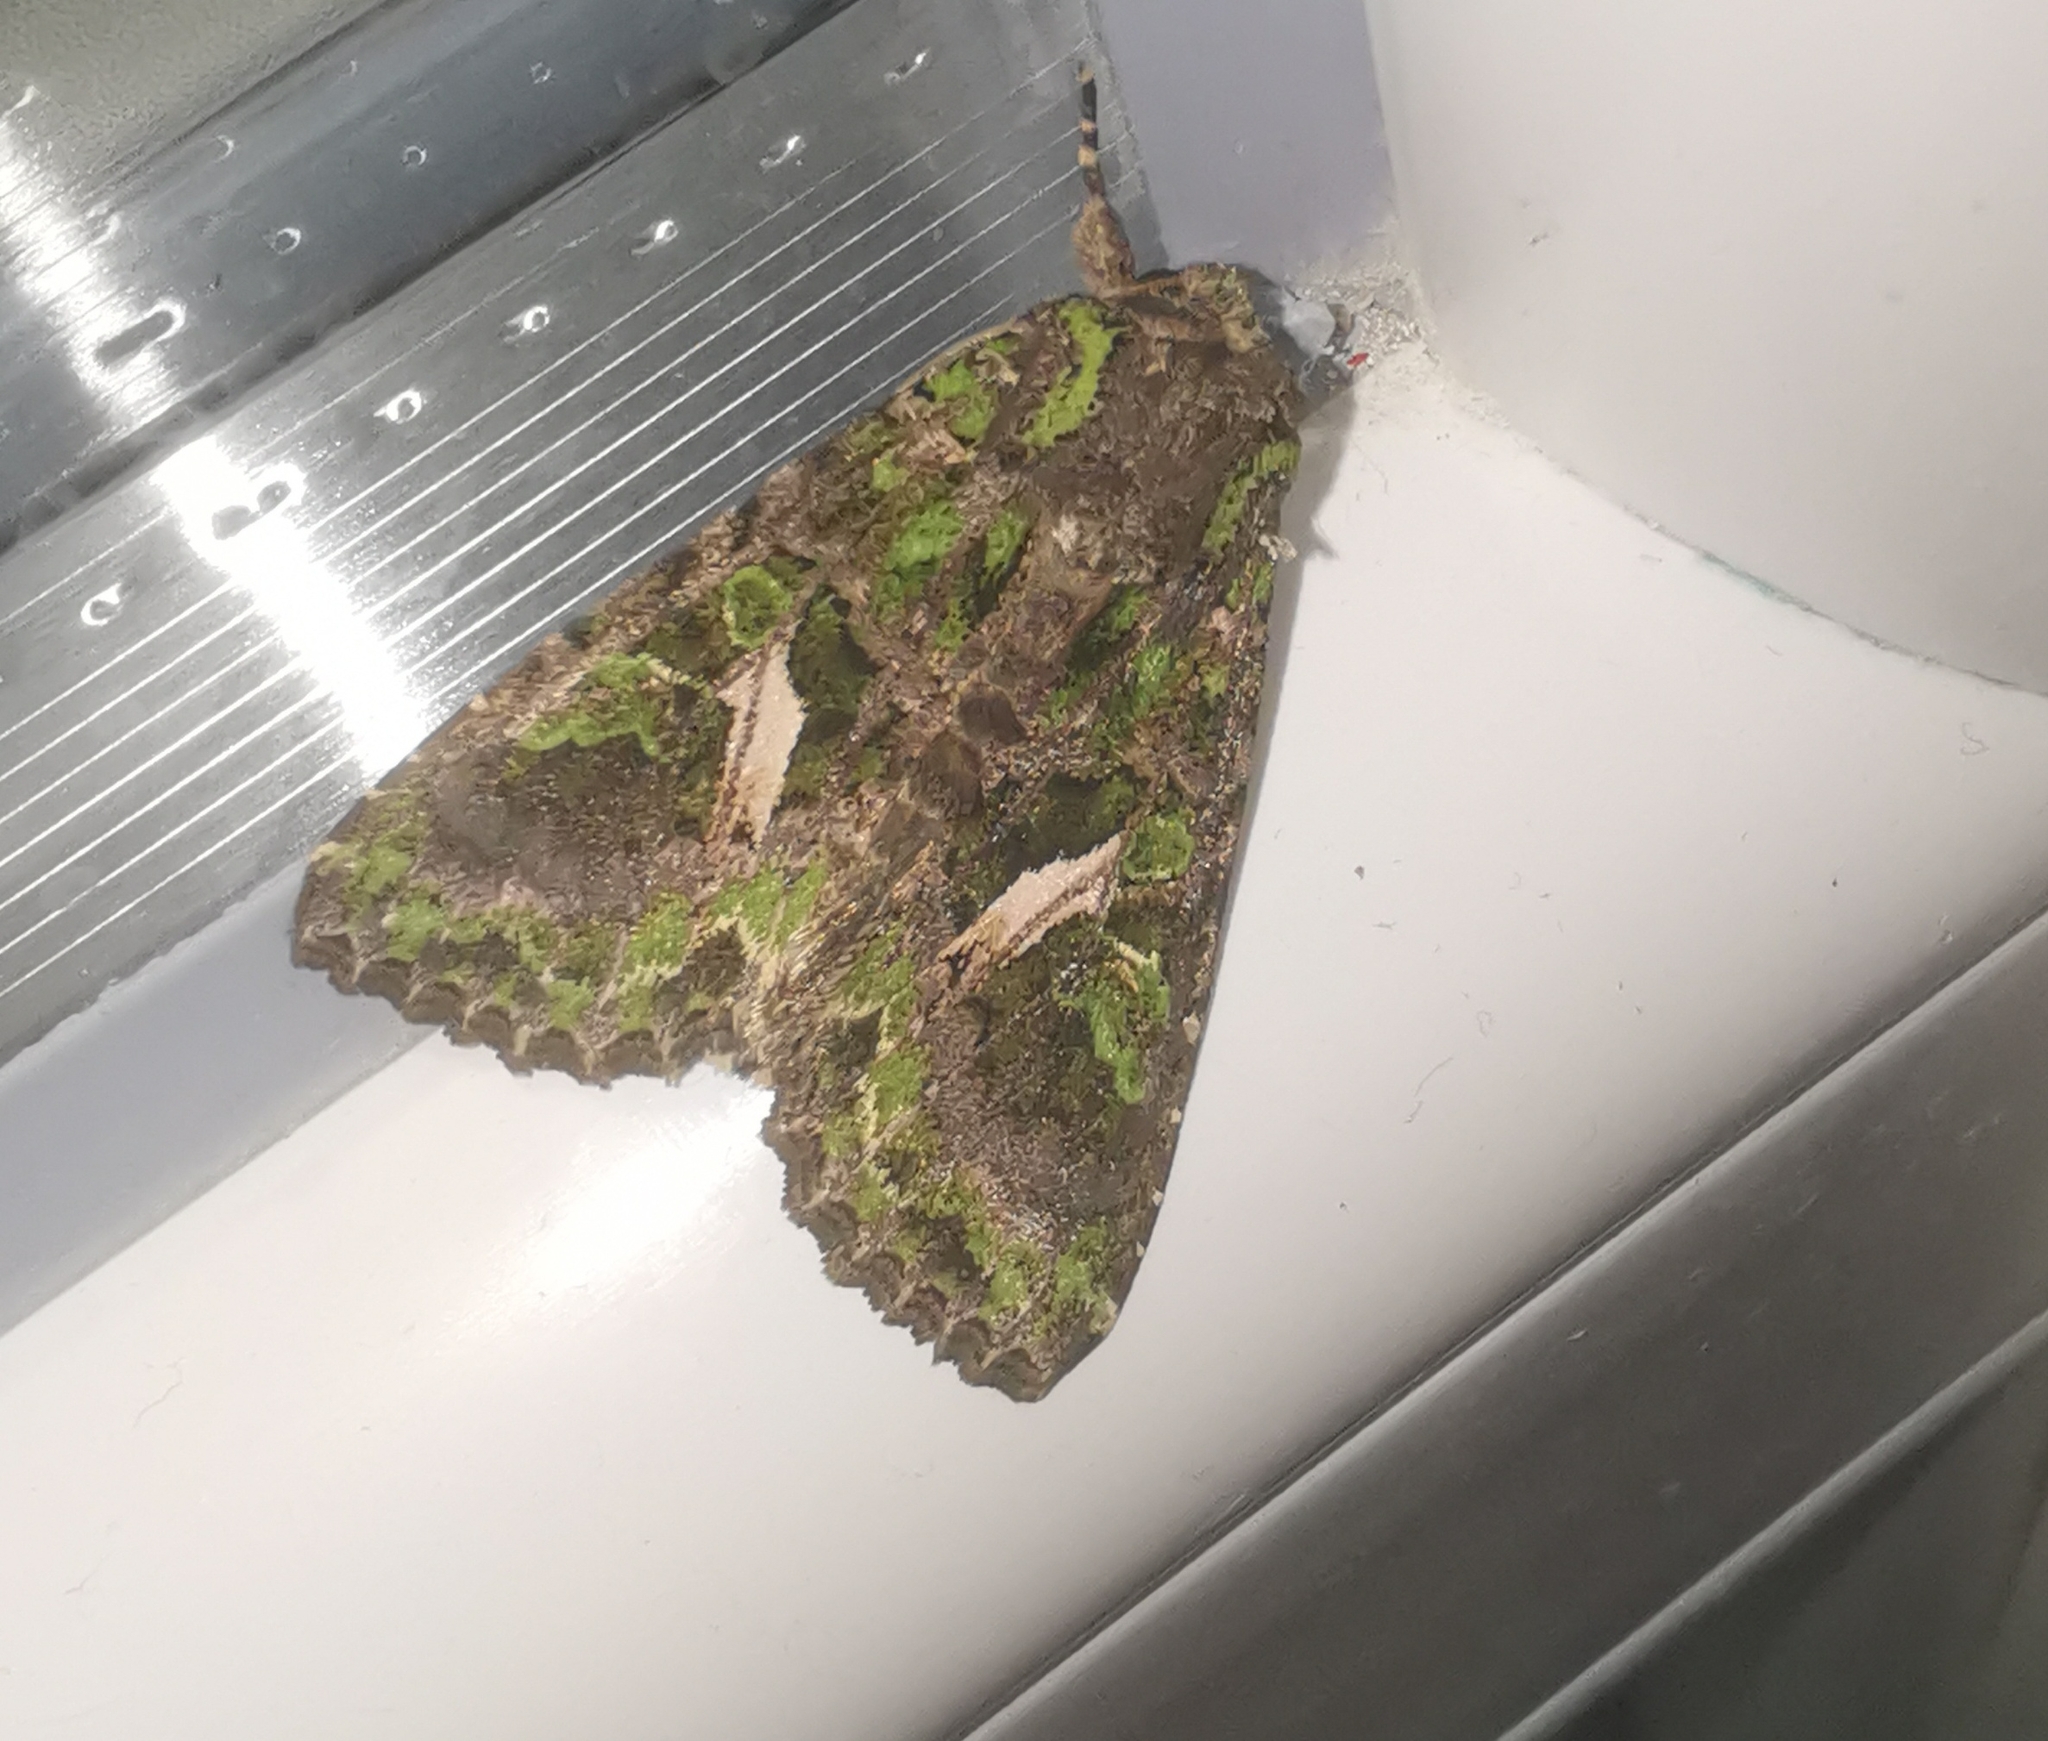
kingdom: Animalia
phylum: Arthropoda
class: Insecta
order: Lepidoptera
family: Noctuidae
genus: Trachea
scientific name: Trachea atriplicis
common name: Orache moth
